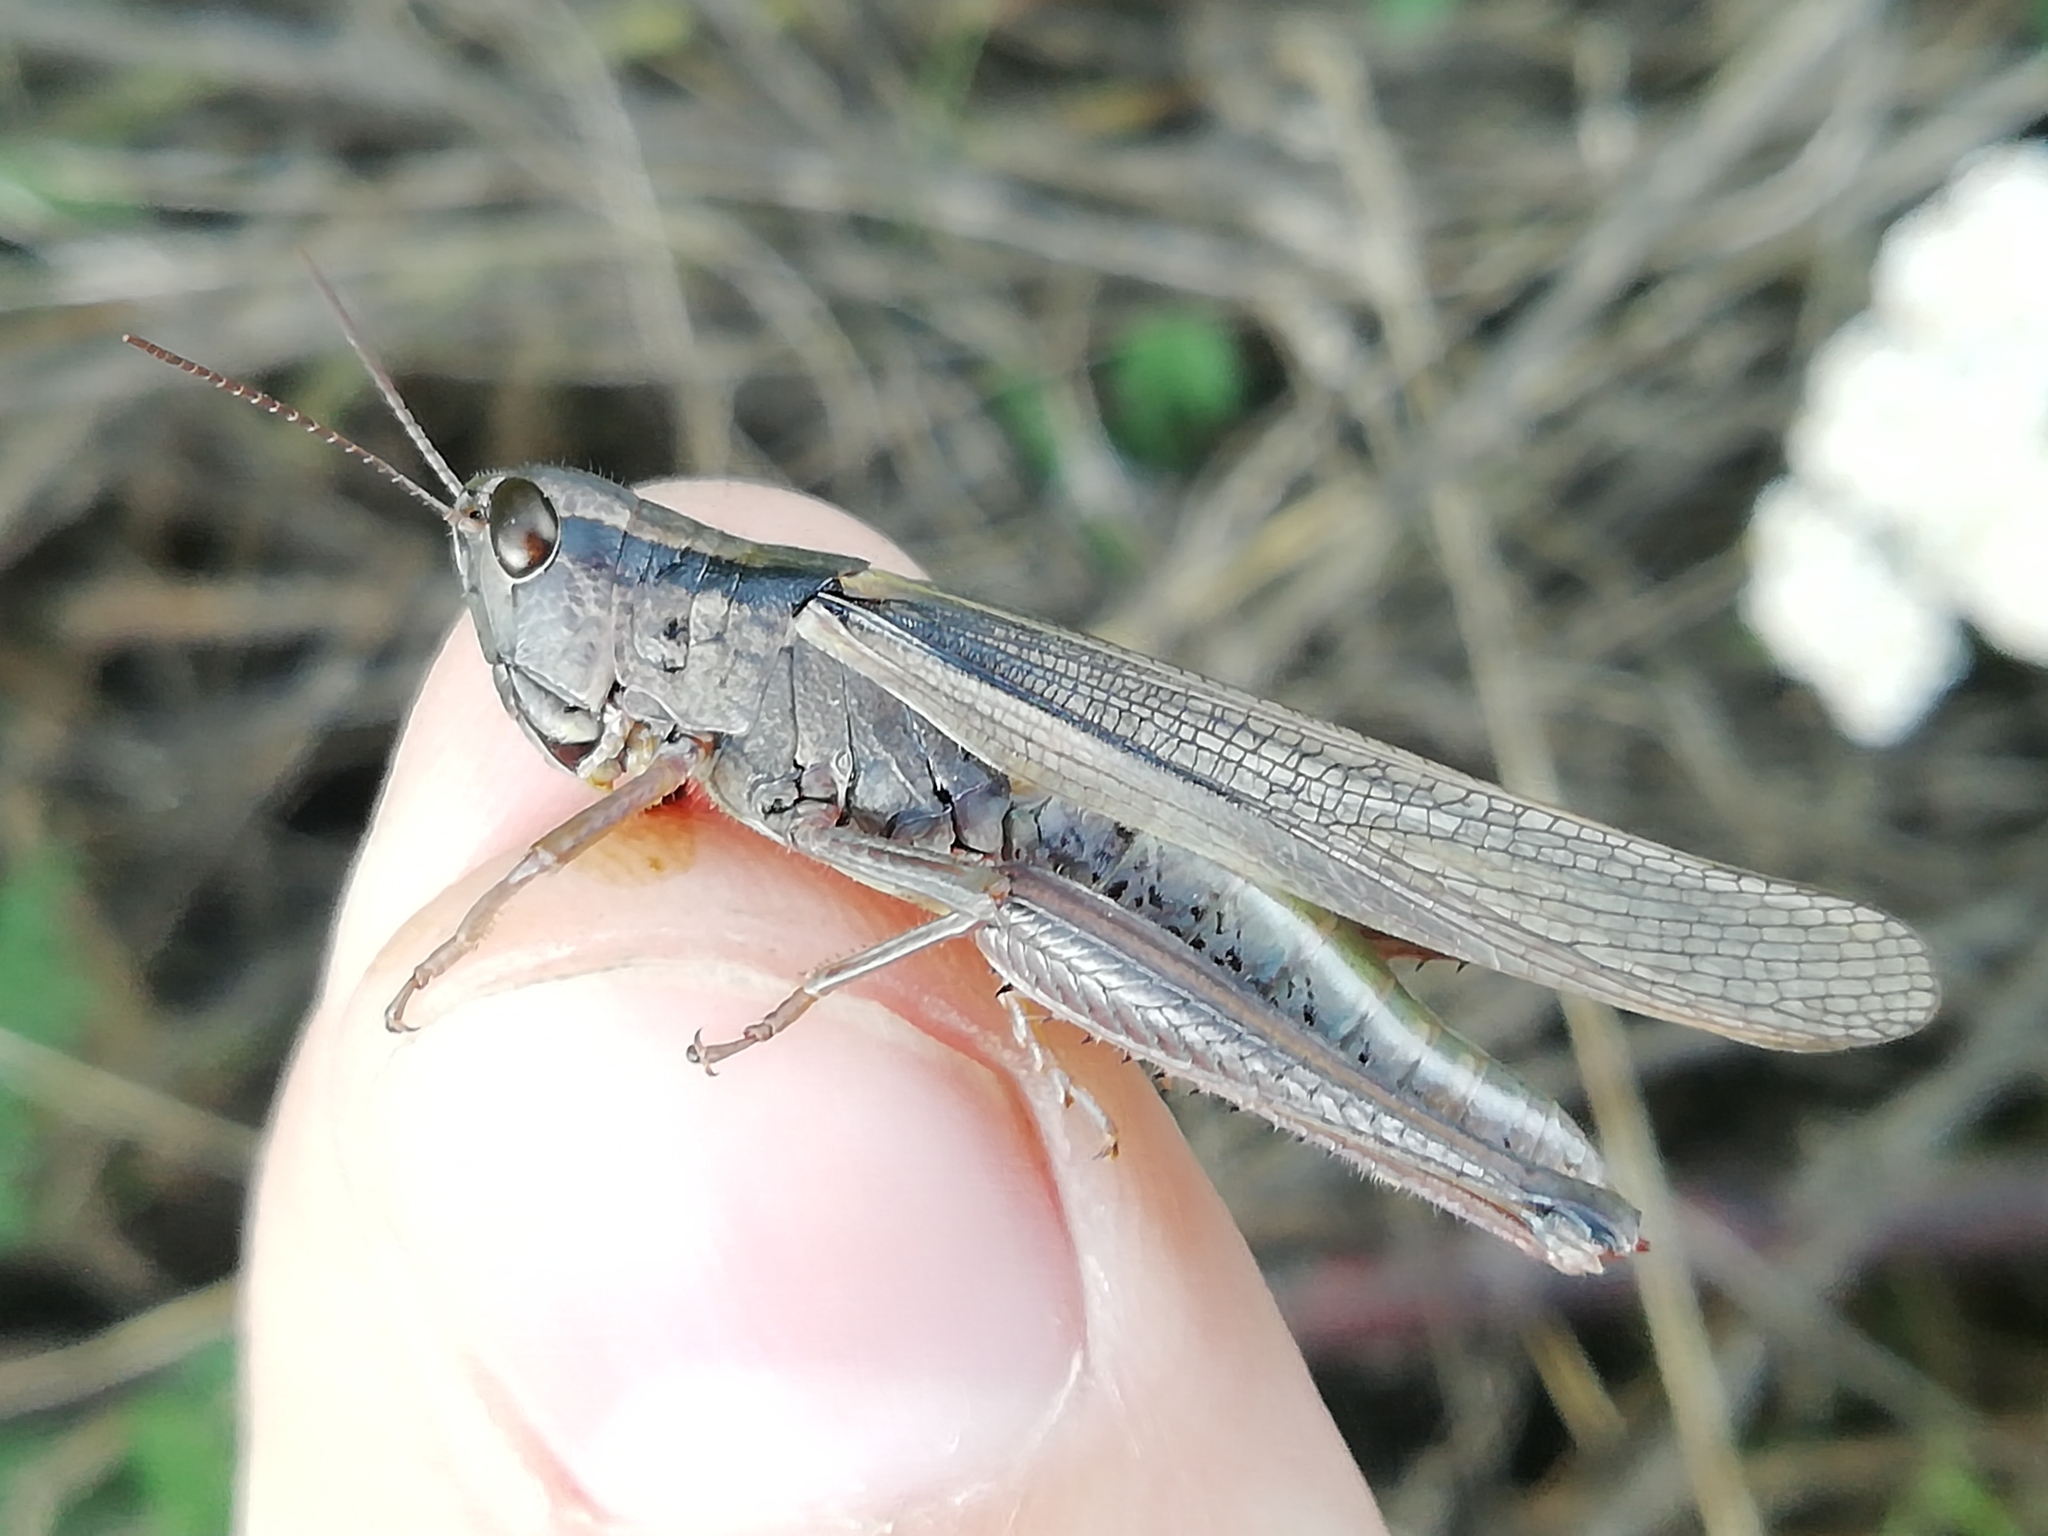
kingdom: Animalia
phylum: Arthropoda
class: Insecta
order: Orthoptera
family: Acrididae
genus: Mecostethus
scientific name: Mecostethus parapleurus
